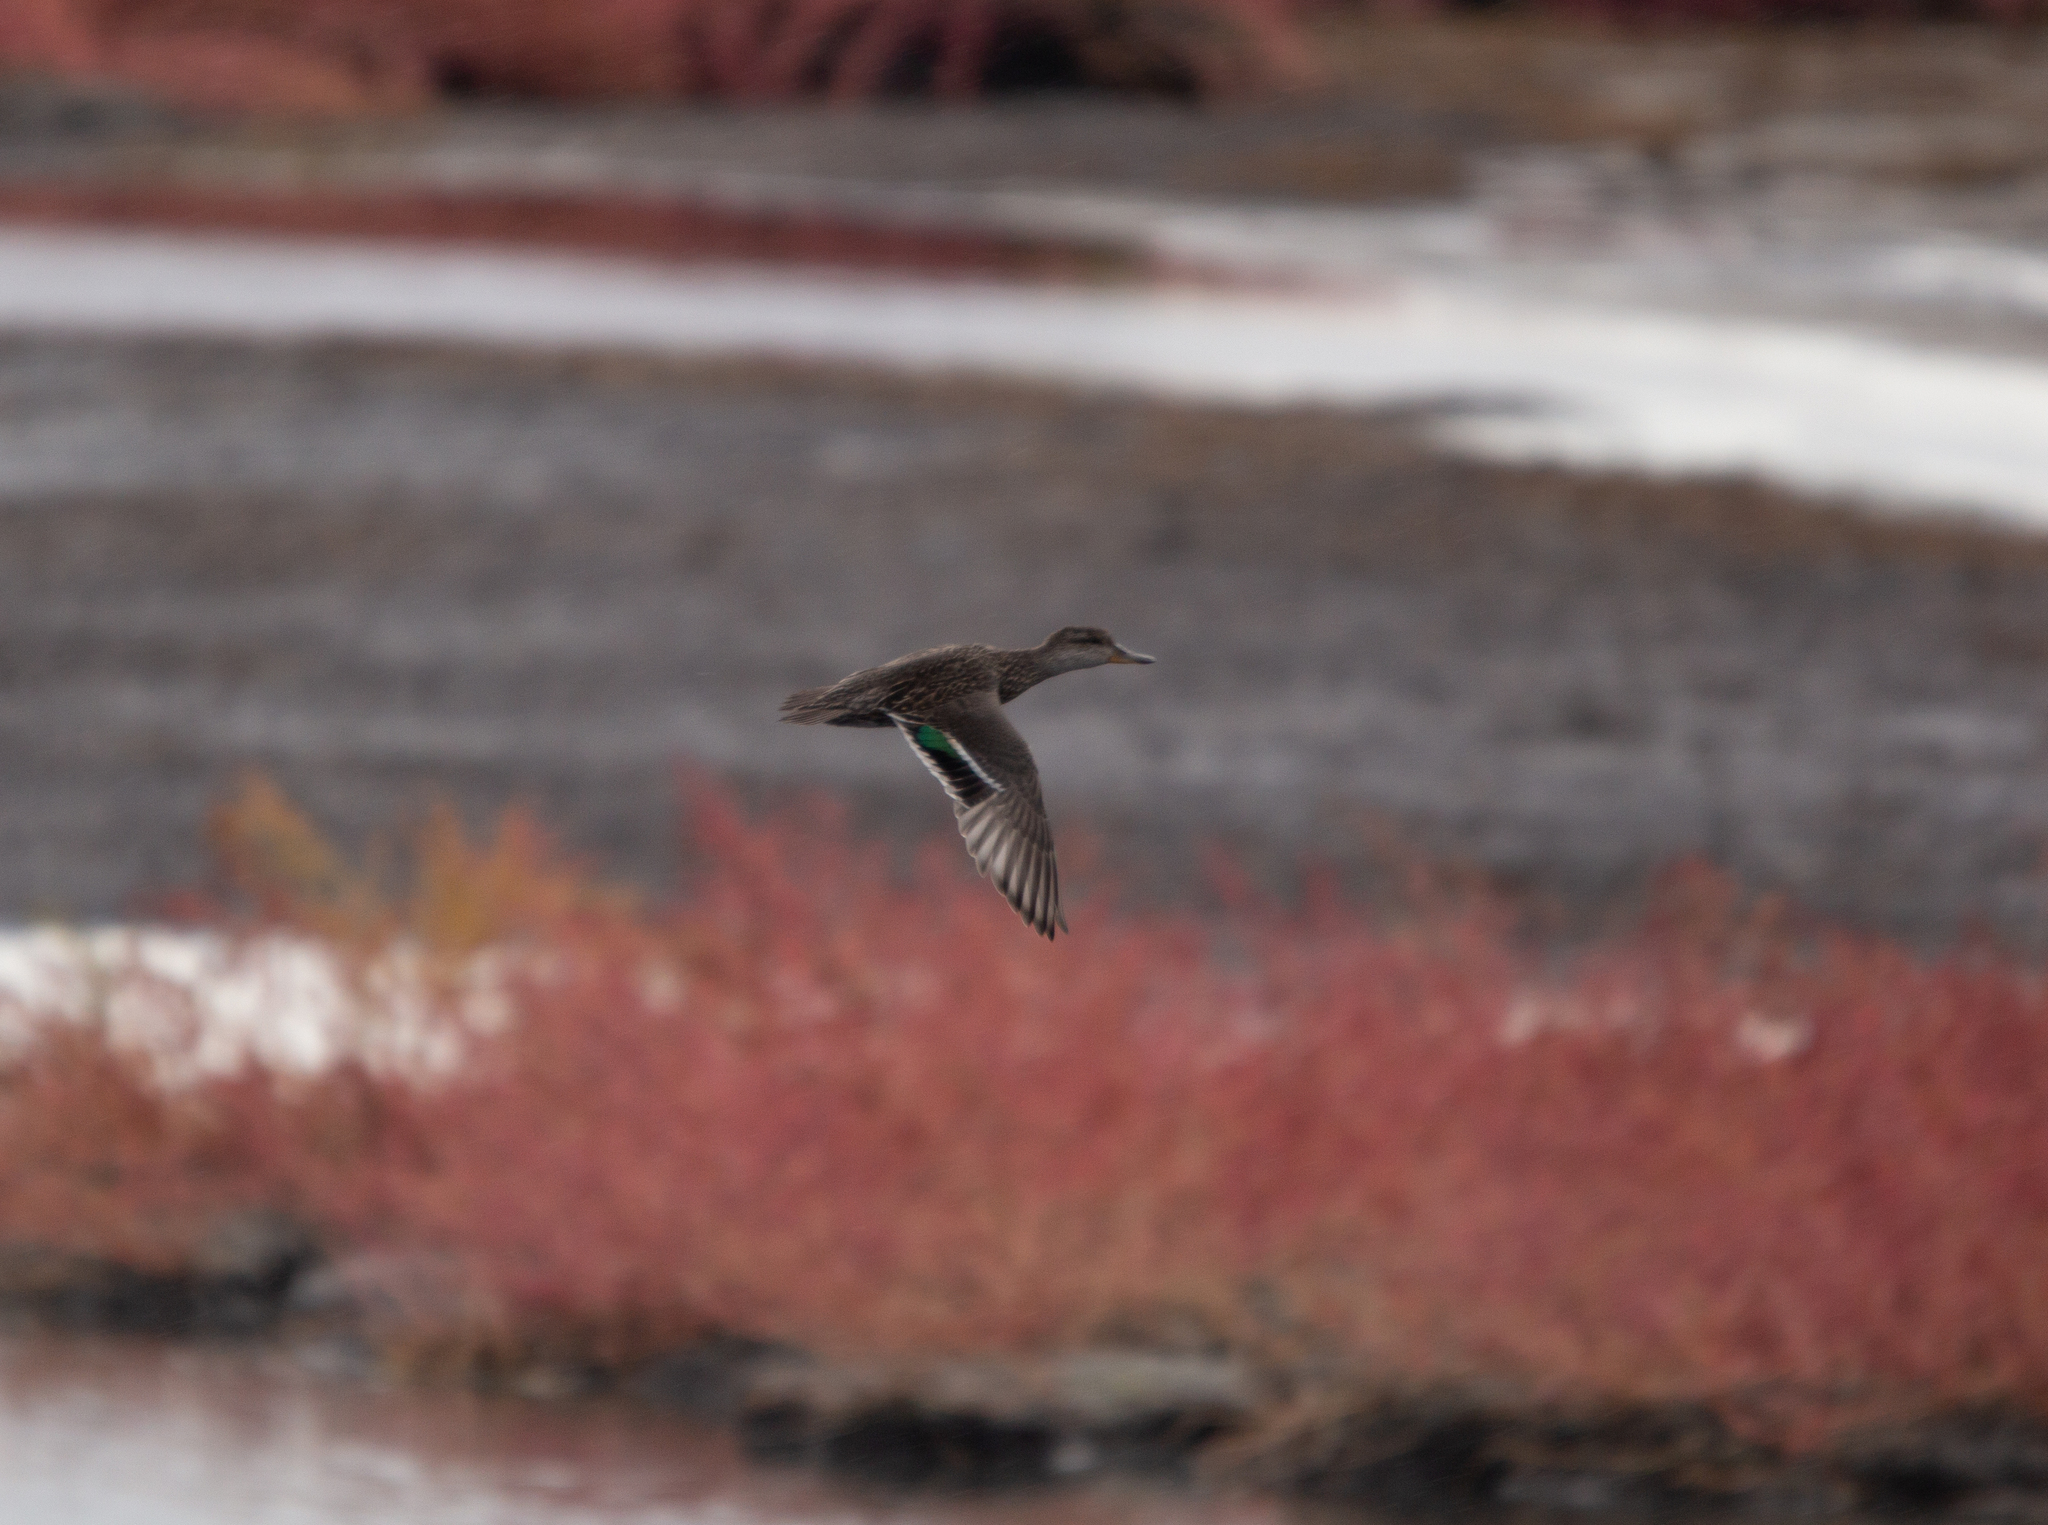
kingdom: Animalia
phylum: Chordata
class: Aves
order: Anseriformes
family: Anatidae
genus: Anas
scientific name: Anas crecca
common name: Eurasian teal
